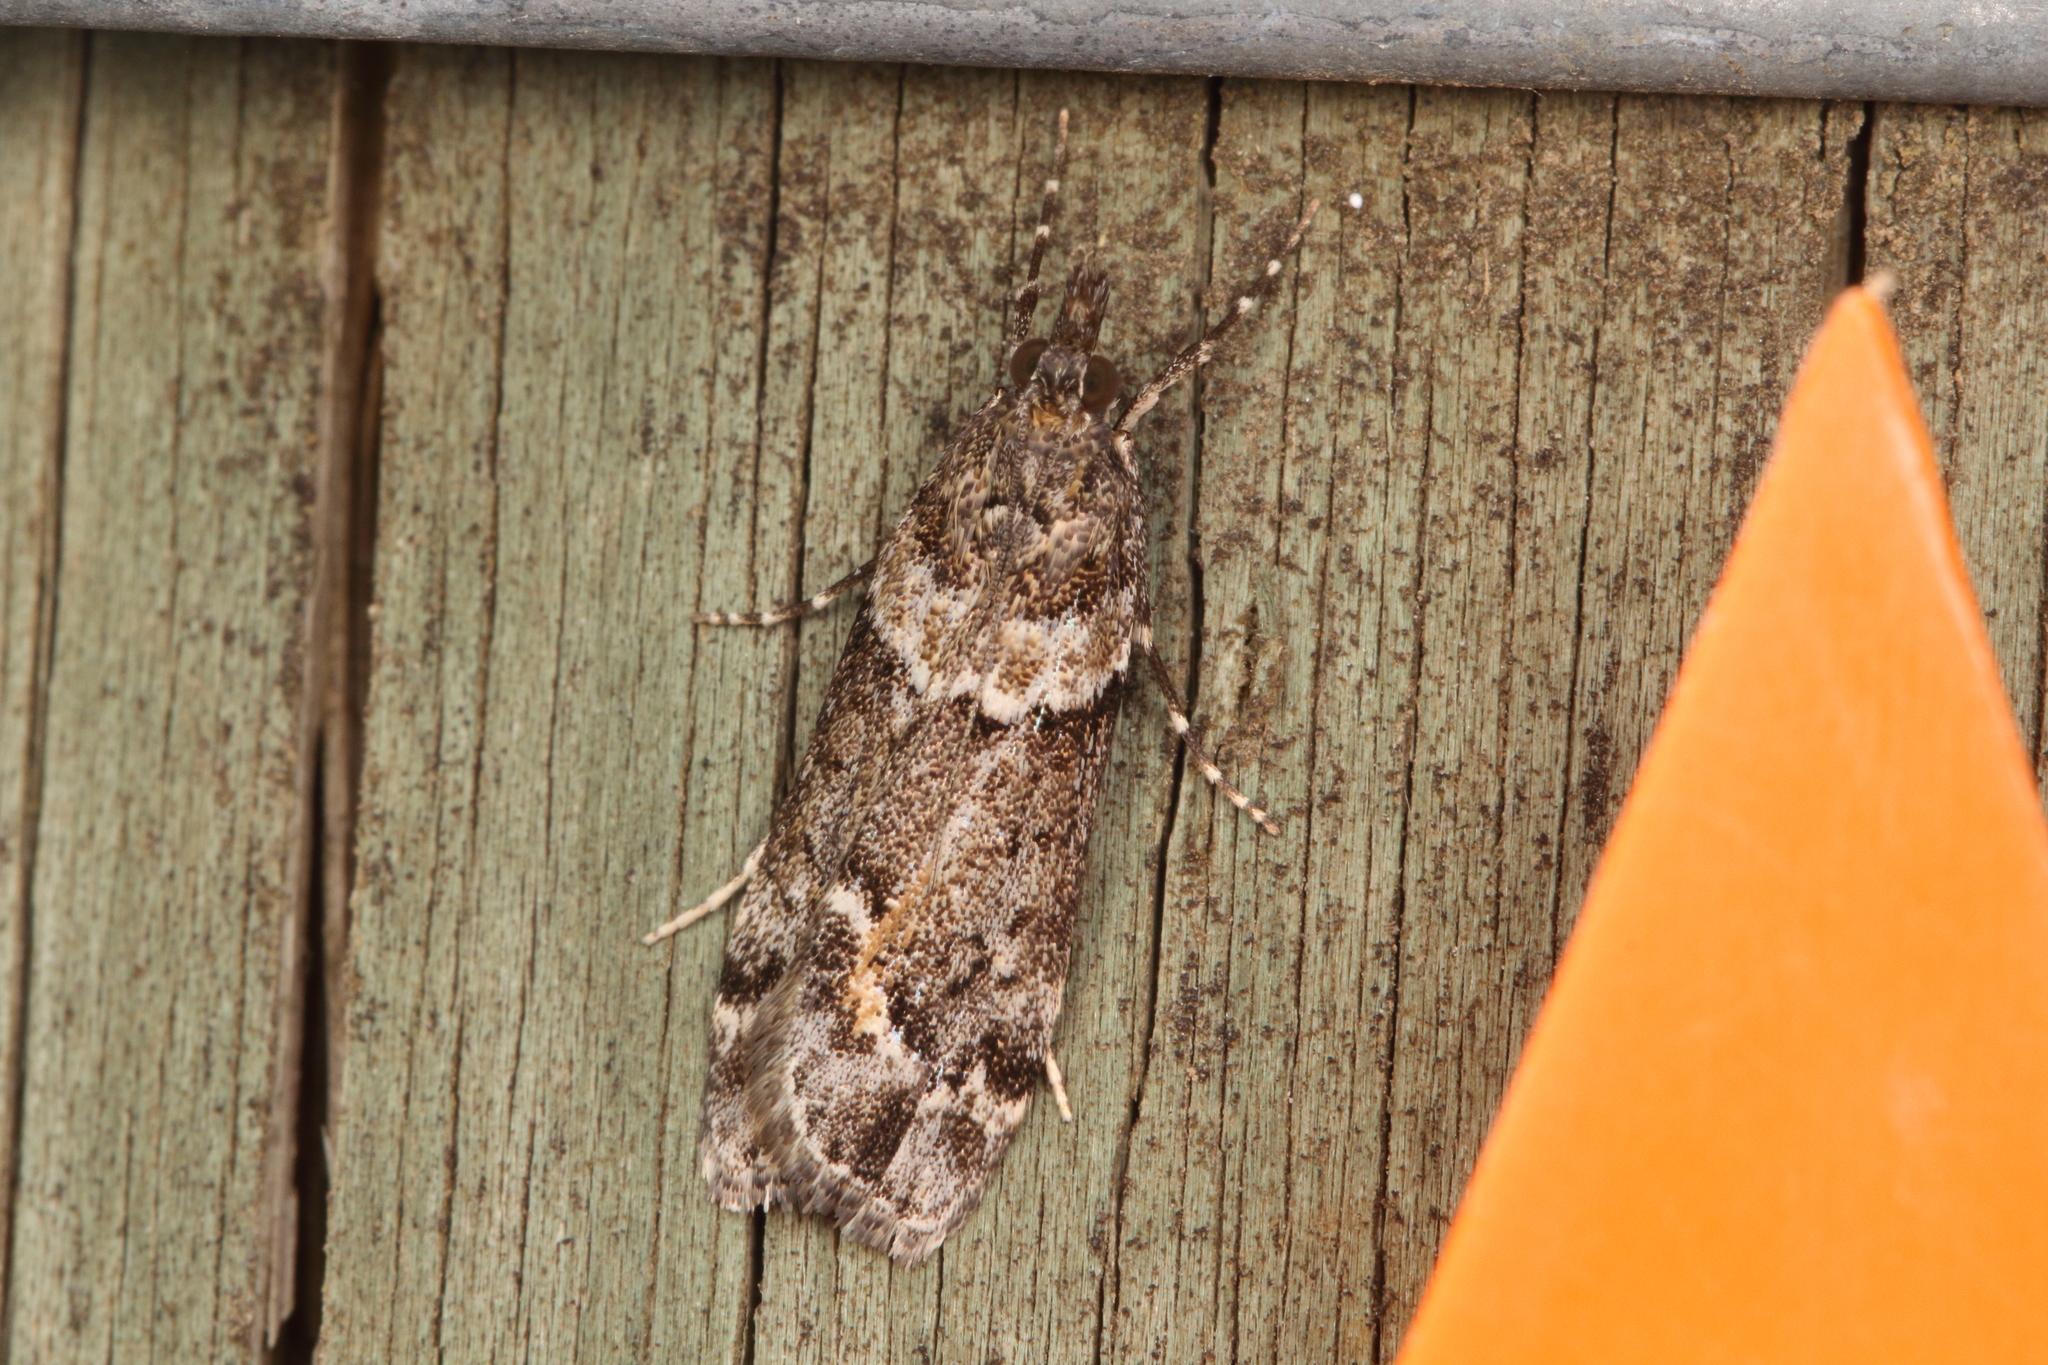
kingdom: Animalia
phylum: Arthropoda
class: Insecta
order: Lepidoptera
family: Crambidae
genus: Eudonia
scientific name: Eudonia submarginalis
